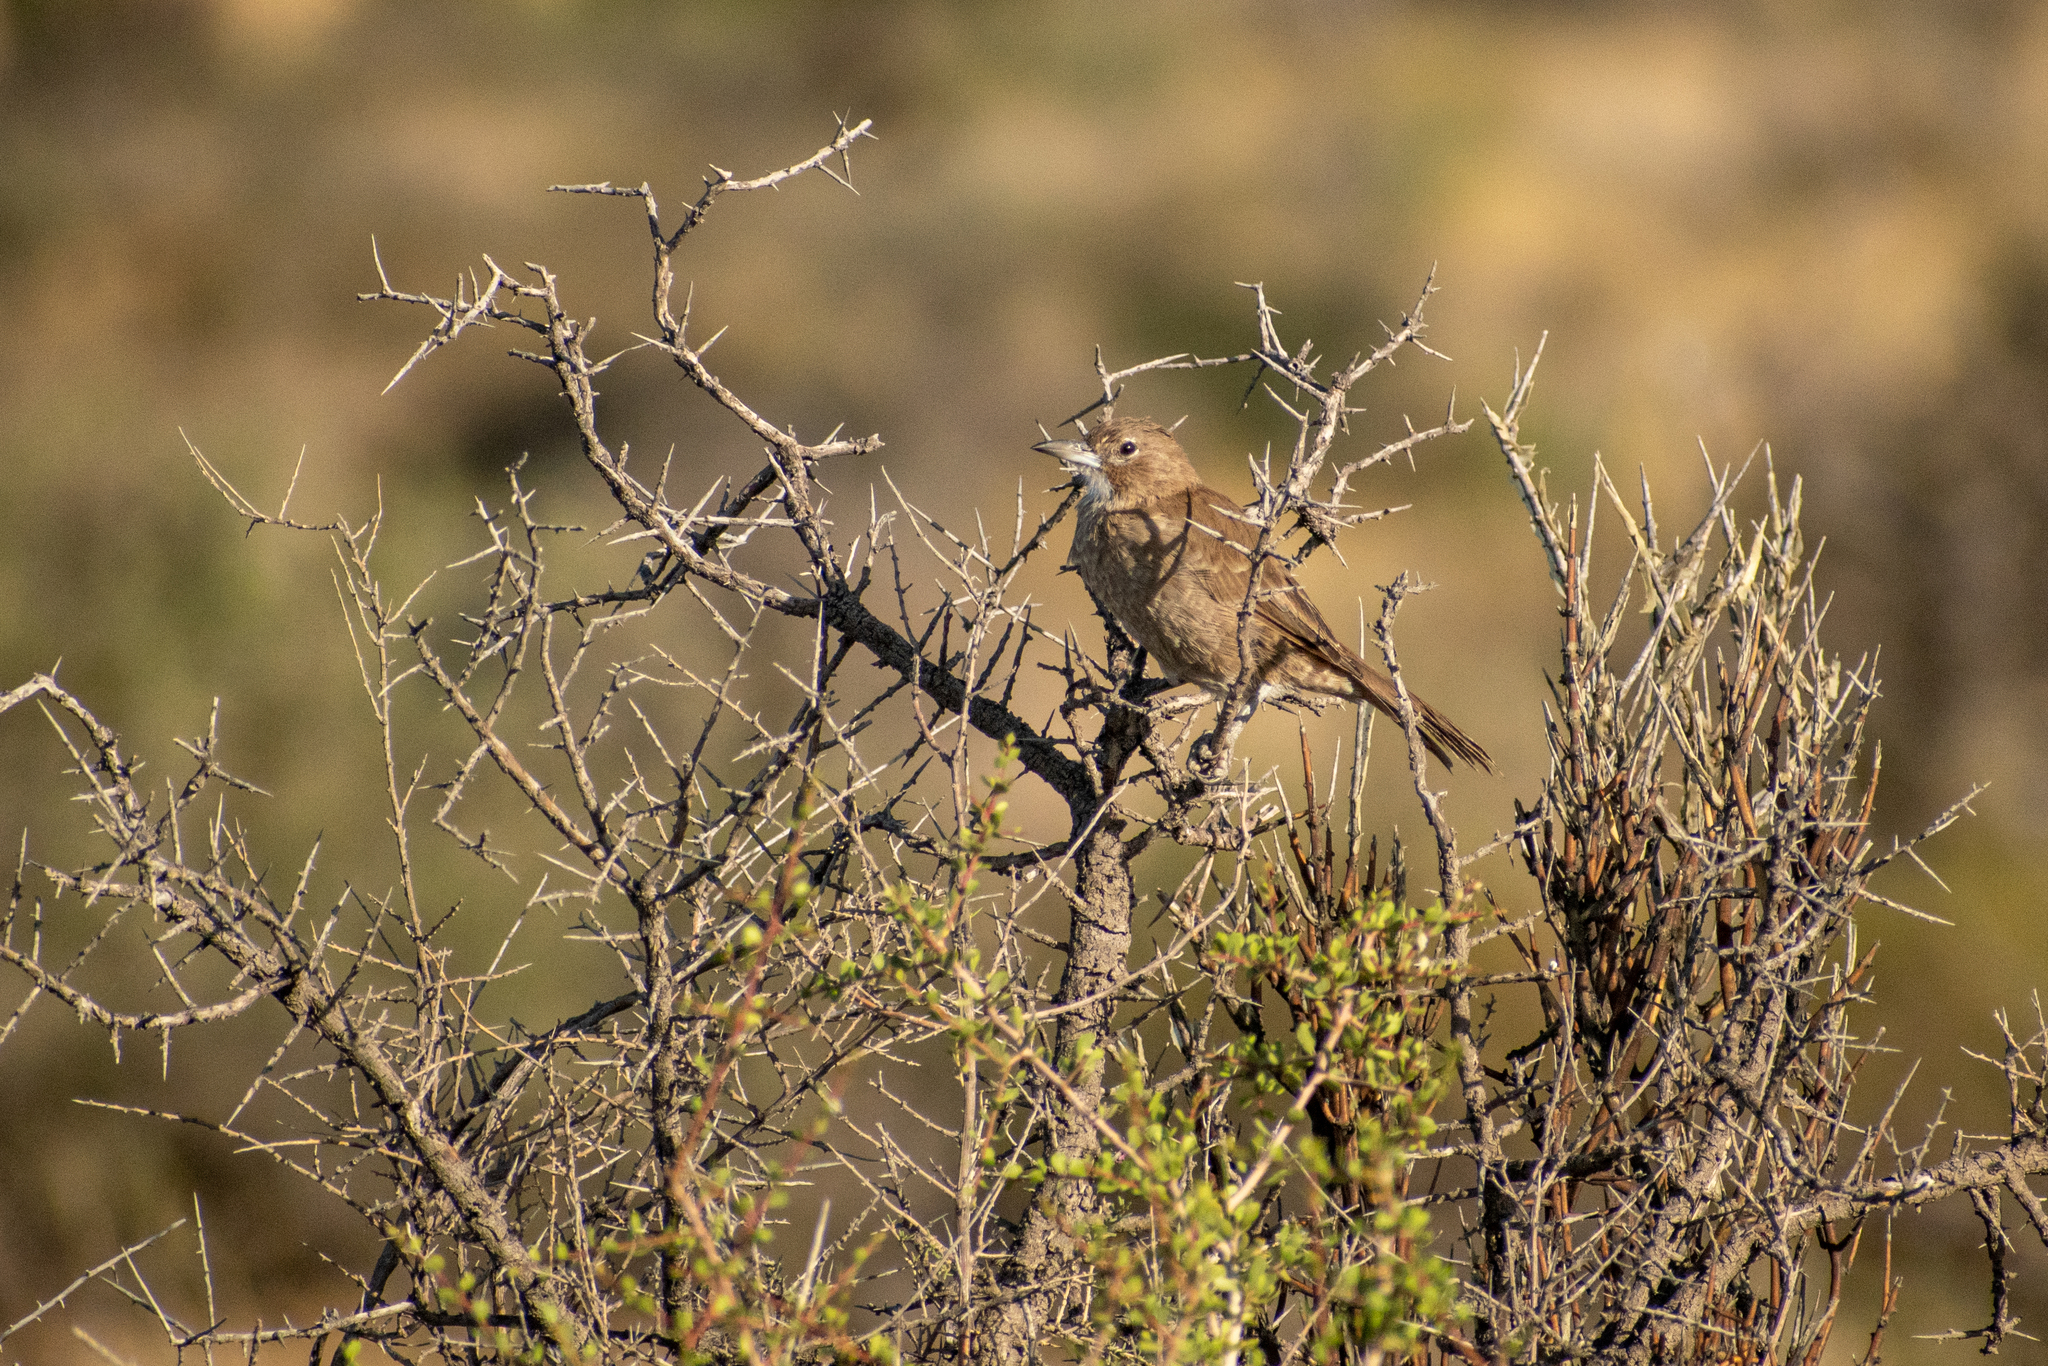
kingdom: Animalia
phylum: Chordata
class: Aves
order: Passeriformes
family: Furnariidae
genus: Pseudoseisura
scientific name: Pseudoseisura gutturalis
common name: White-throated cacholote
